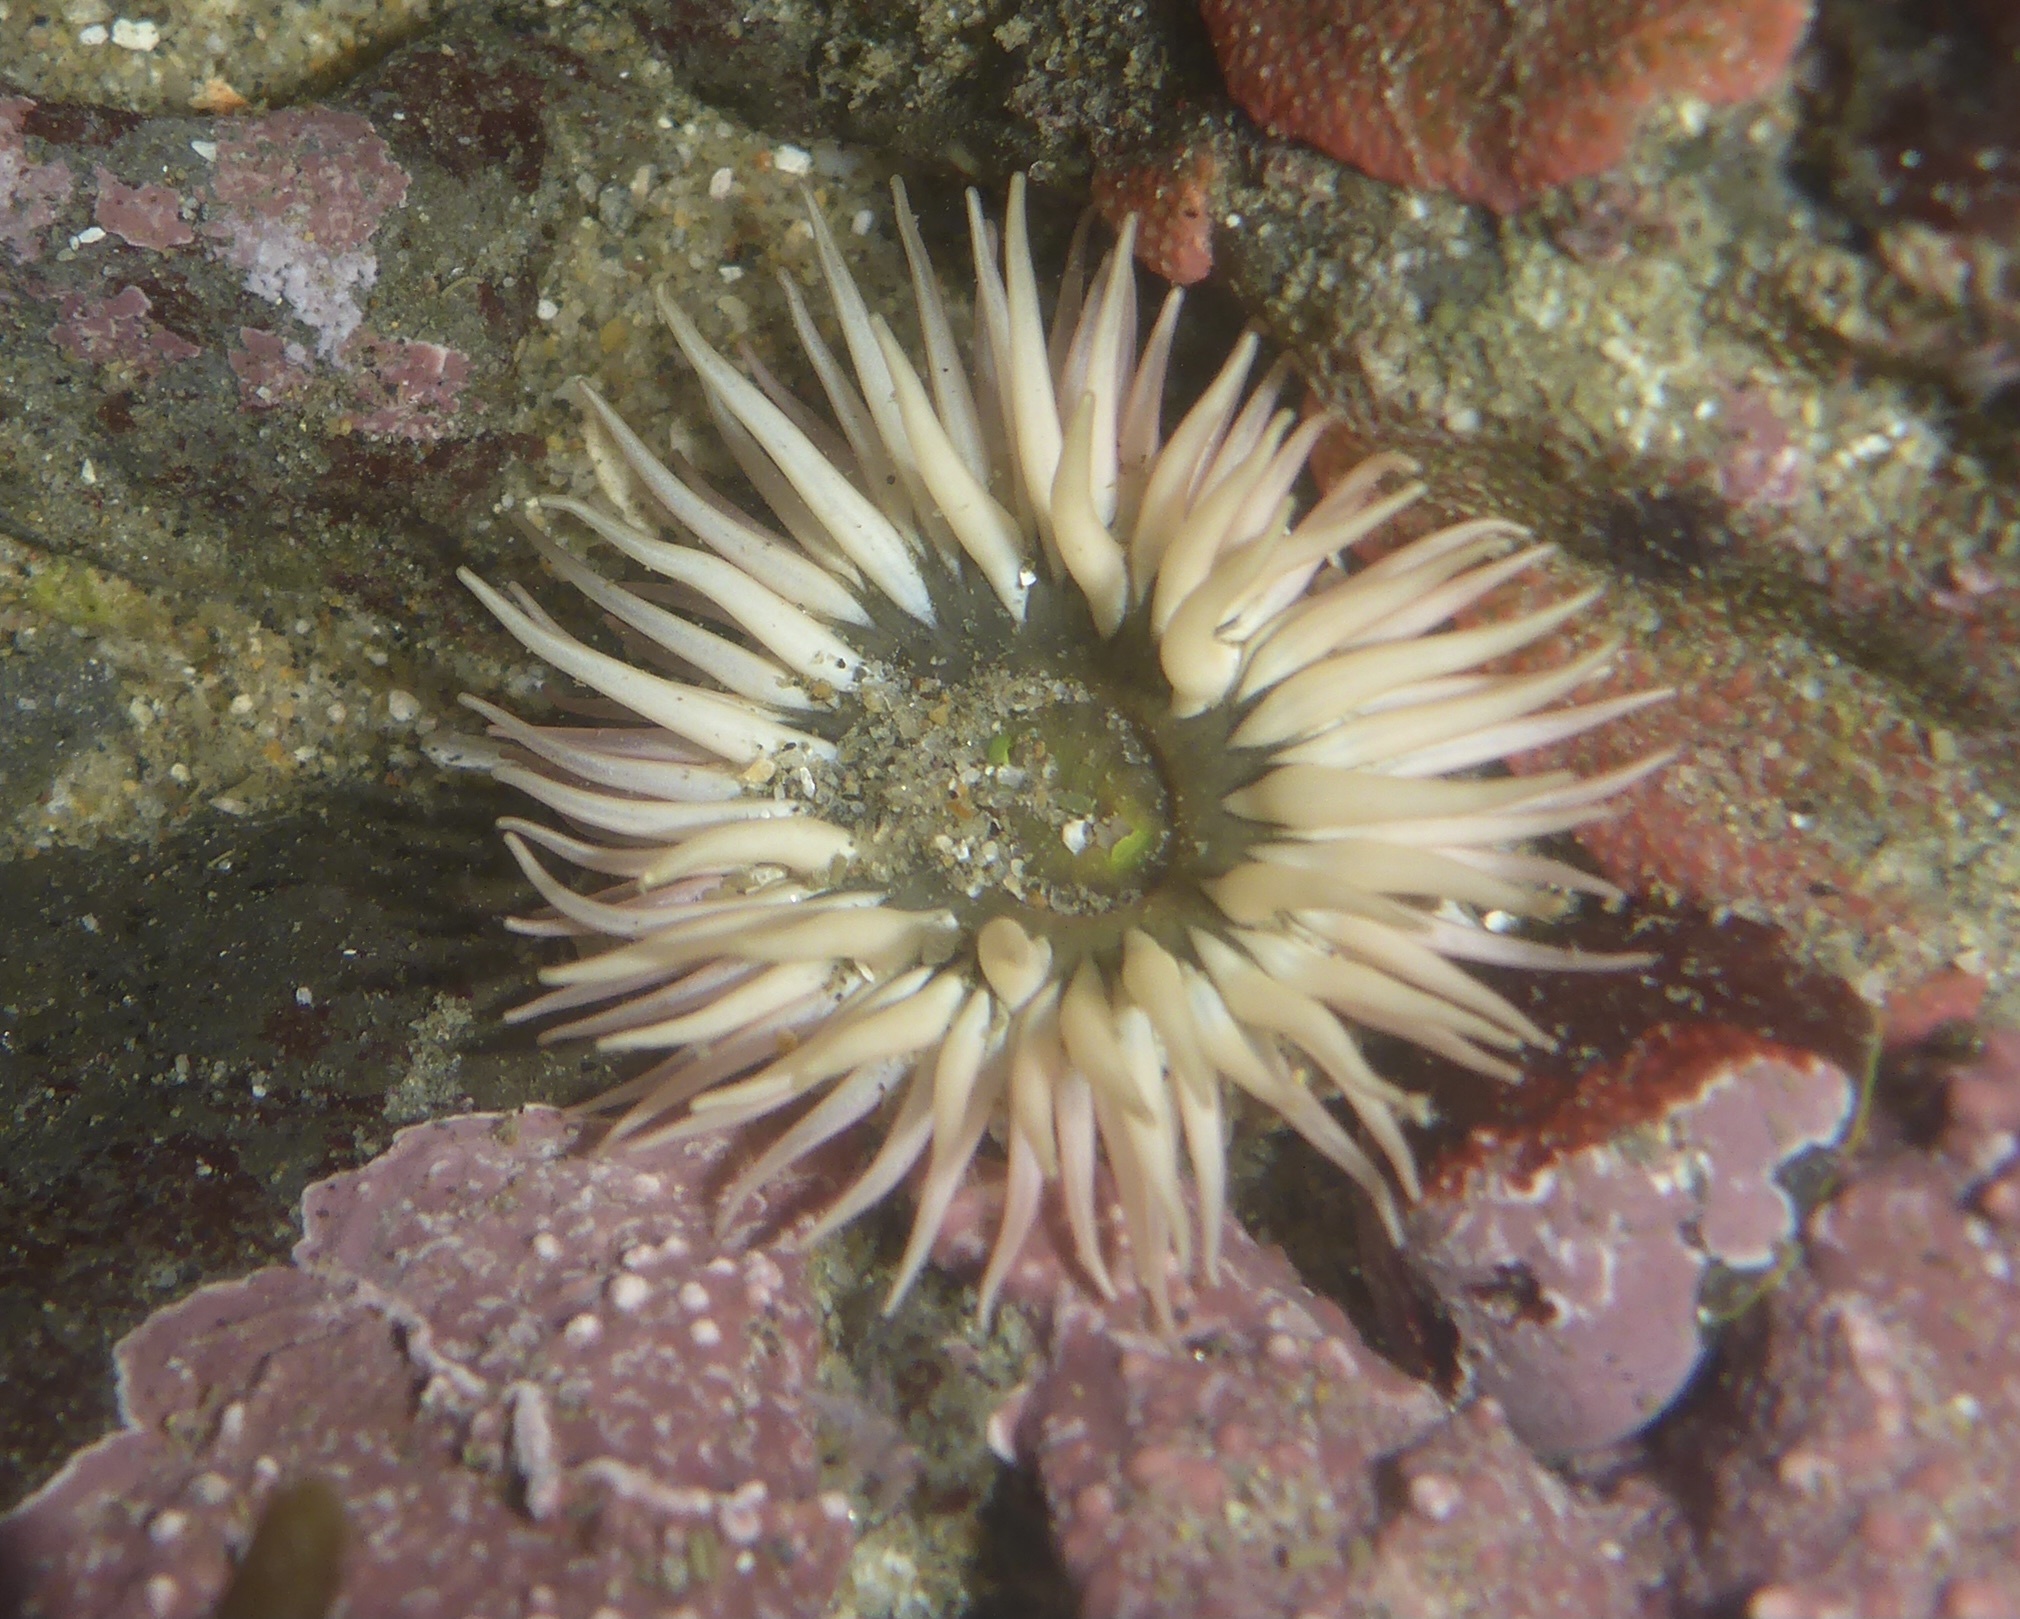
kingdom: Animalia
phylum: Cnidaria
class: Anthozoa
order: Actiniaria
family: Actiniidae
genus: Anthopleura
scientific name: Anthopleura artemisia
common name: Buried sea anemone
